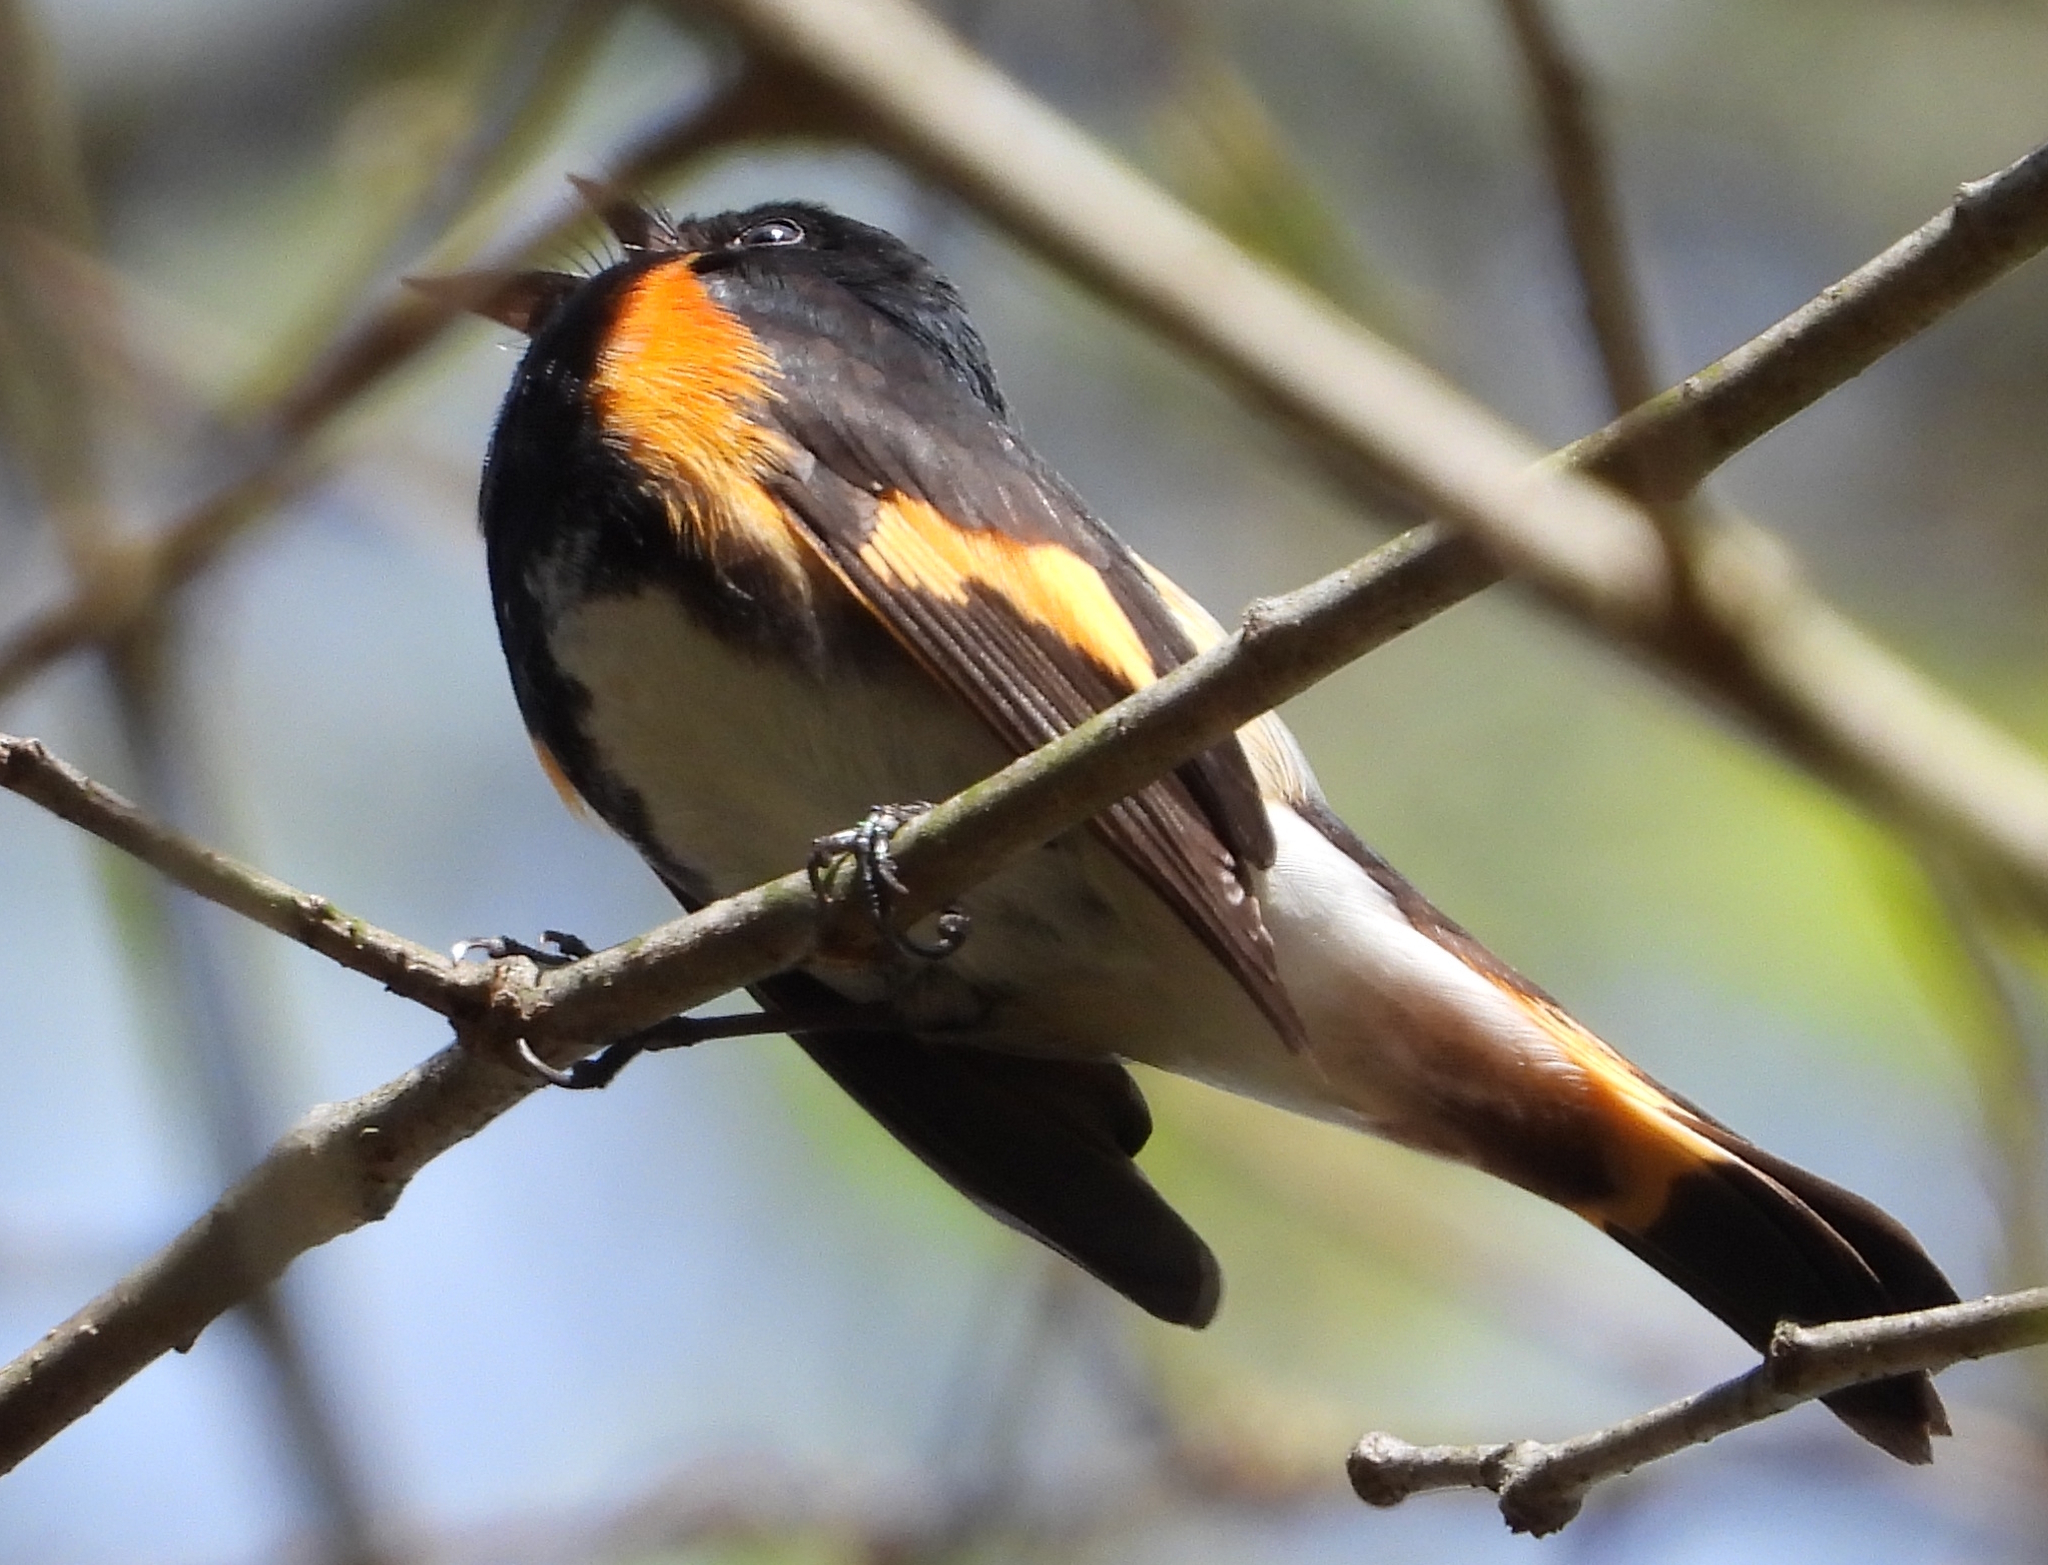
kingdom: Animalia
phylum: Chordata
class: Aves
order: Passeriformes
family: Parulidae
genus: Setophaga
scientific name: Setophaga ruticilla
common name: American redstart
